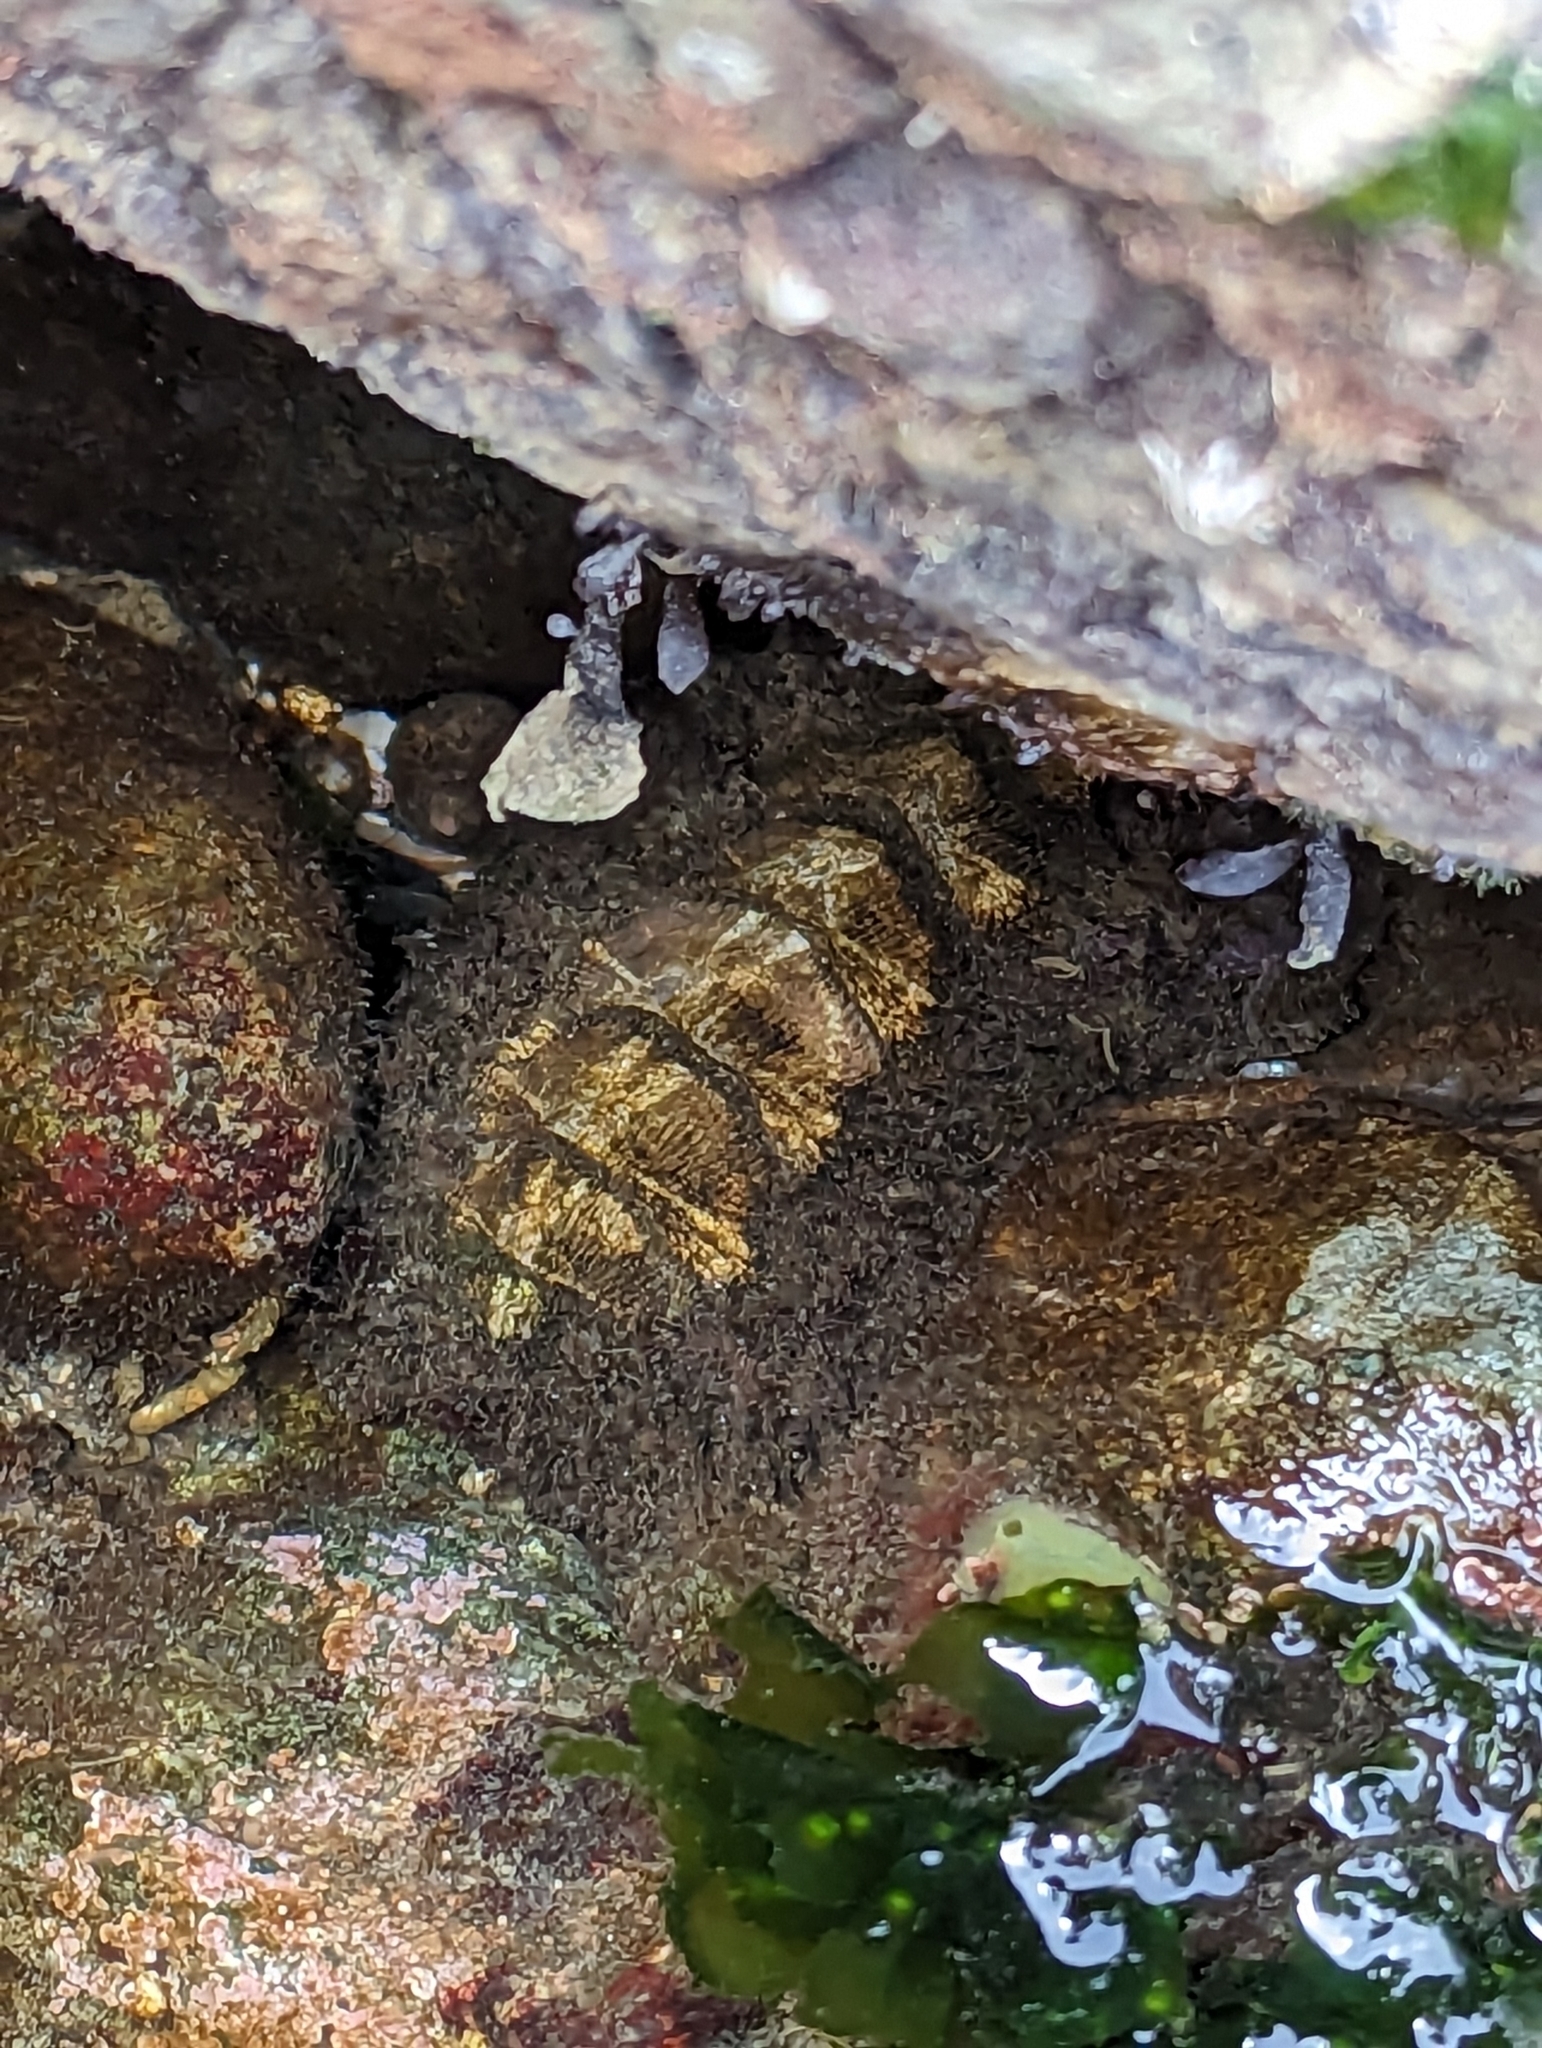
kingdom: Animalia
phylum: Mollusca
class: Polyplacophora
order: Chitonida
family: Mopaliidae
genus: Mopalia
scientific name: Mopalia muscosa
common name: Mossy chiton
